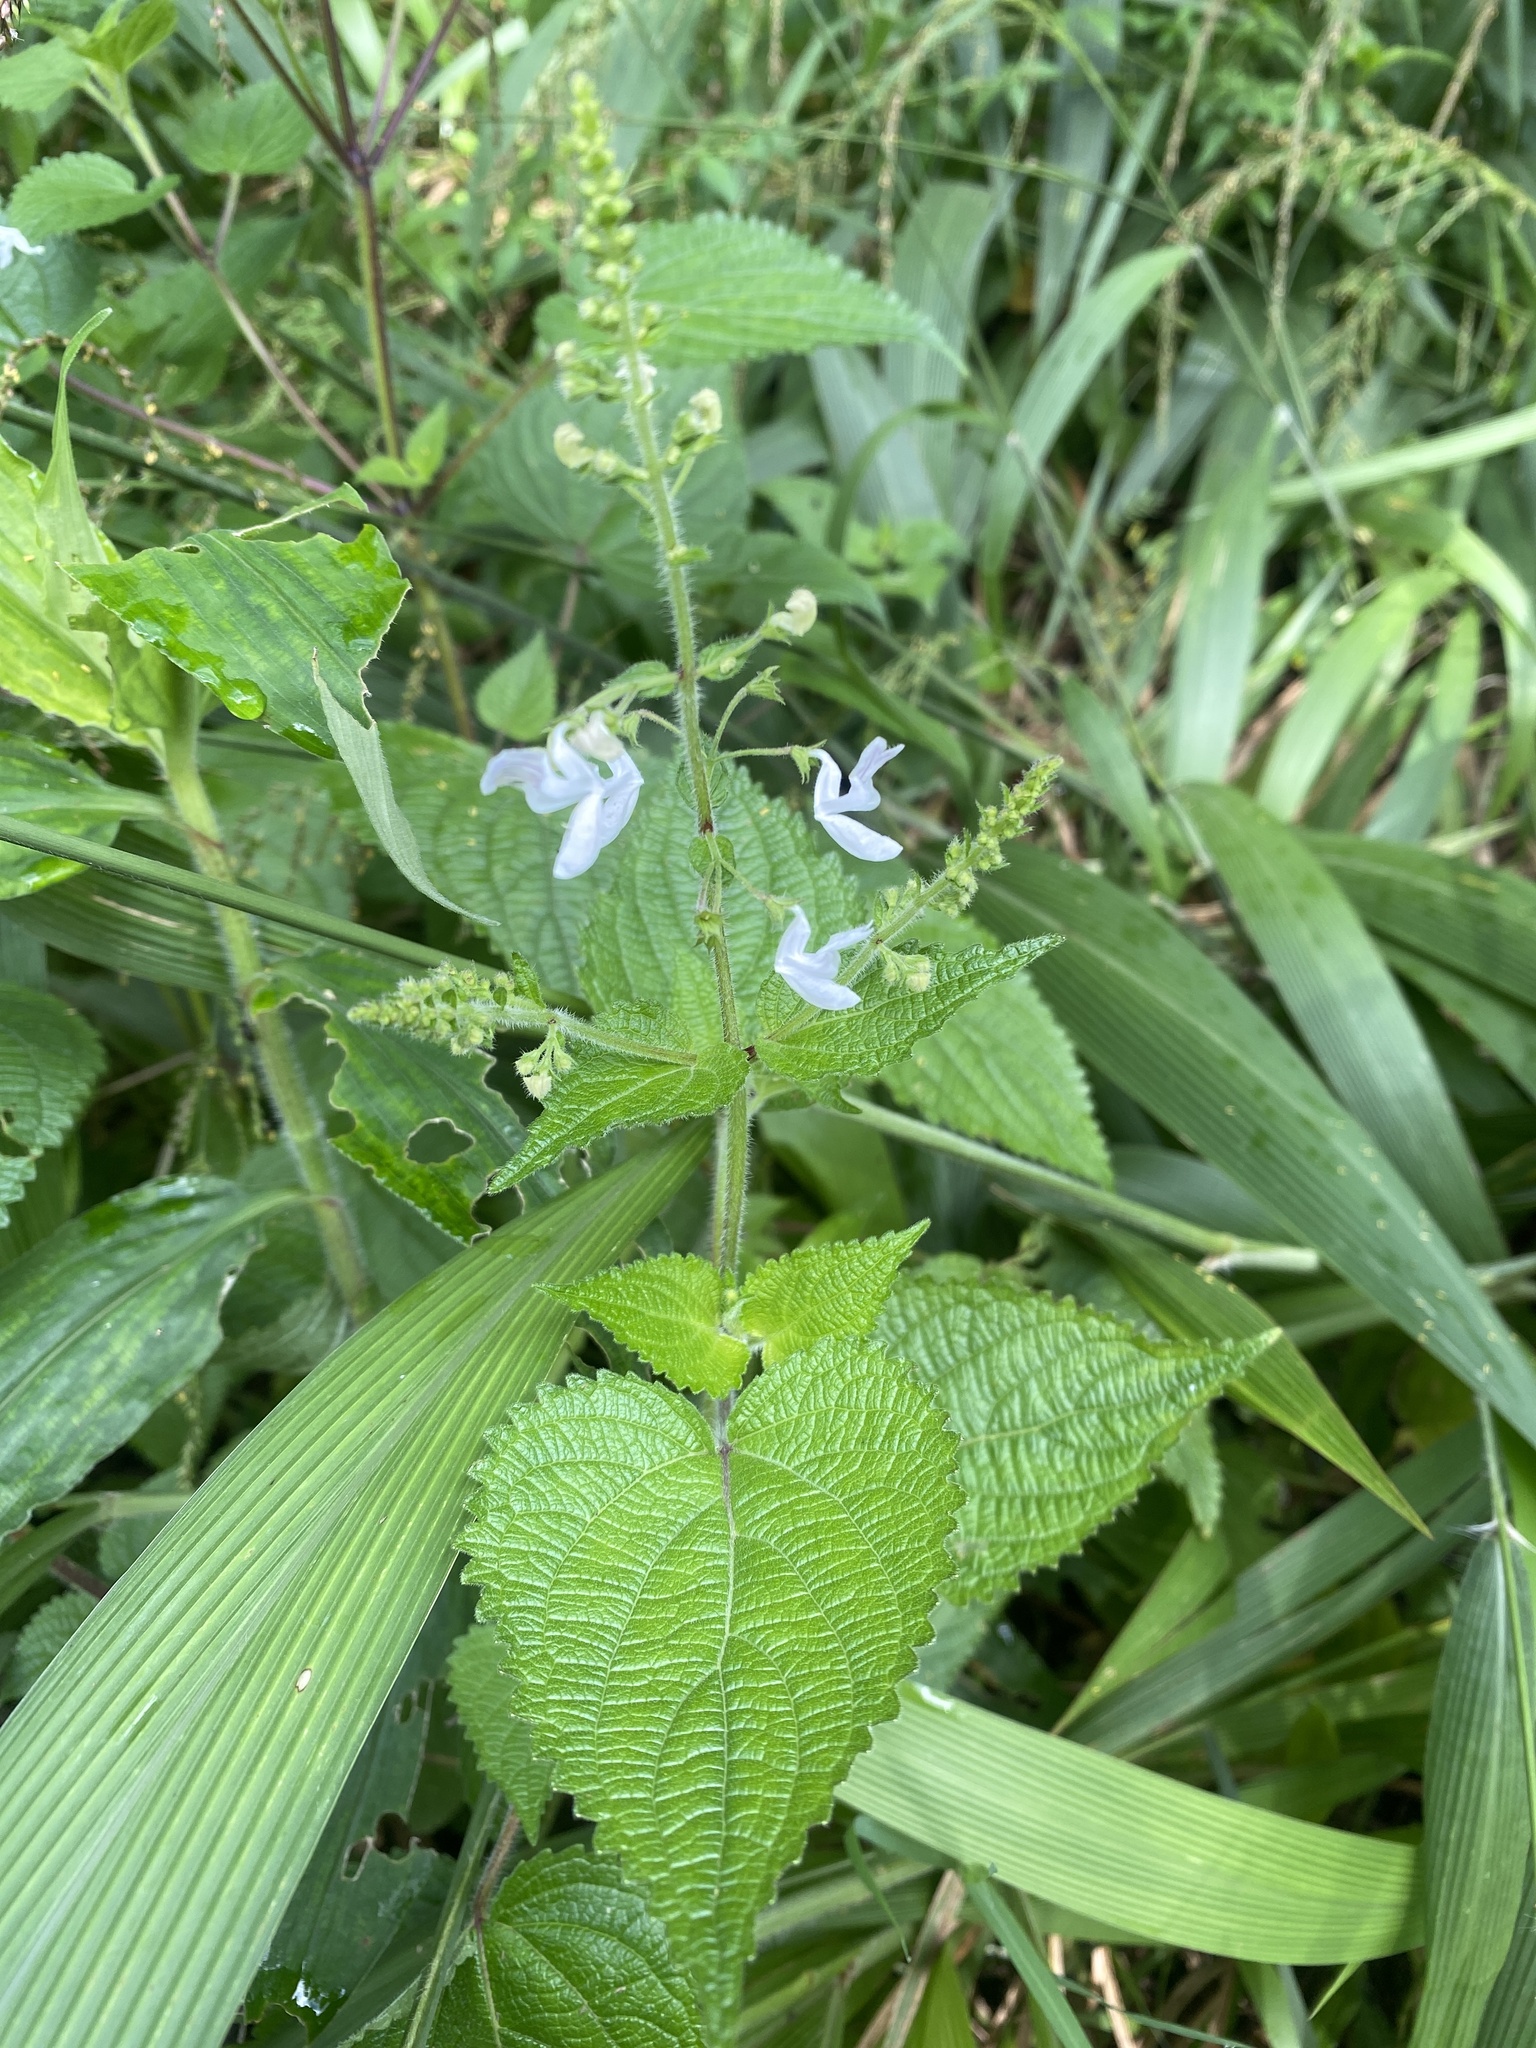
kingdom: Plantae
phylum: Tracheophyta
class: Magnoliopsida
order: Lamiales
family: Lamiaceae
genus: Equilabium
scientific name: Equilabium laxiflorum
